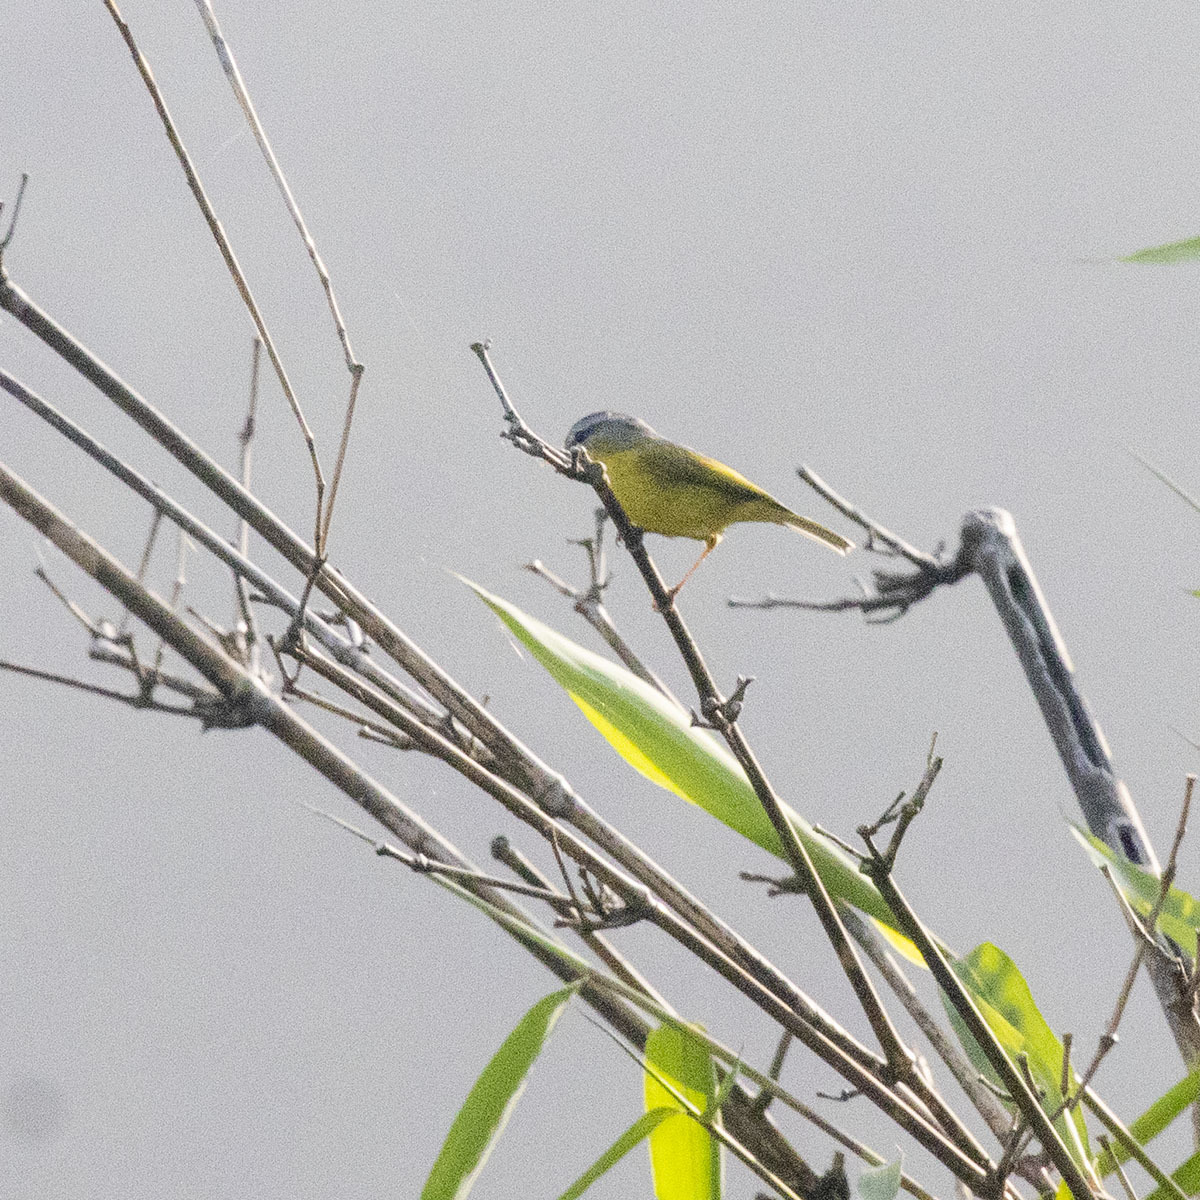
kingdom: Animalia
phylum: Chordata
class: Aves
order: Passeriformes
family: Phylloscopidae
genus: Phylloscopus
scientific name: Phylloscopus xanthoschistos
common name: Grey-hooded warbler
